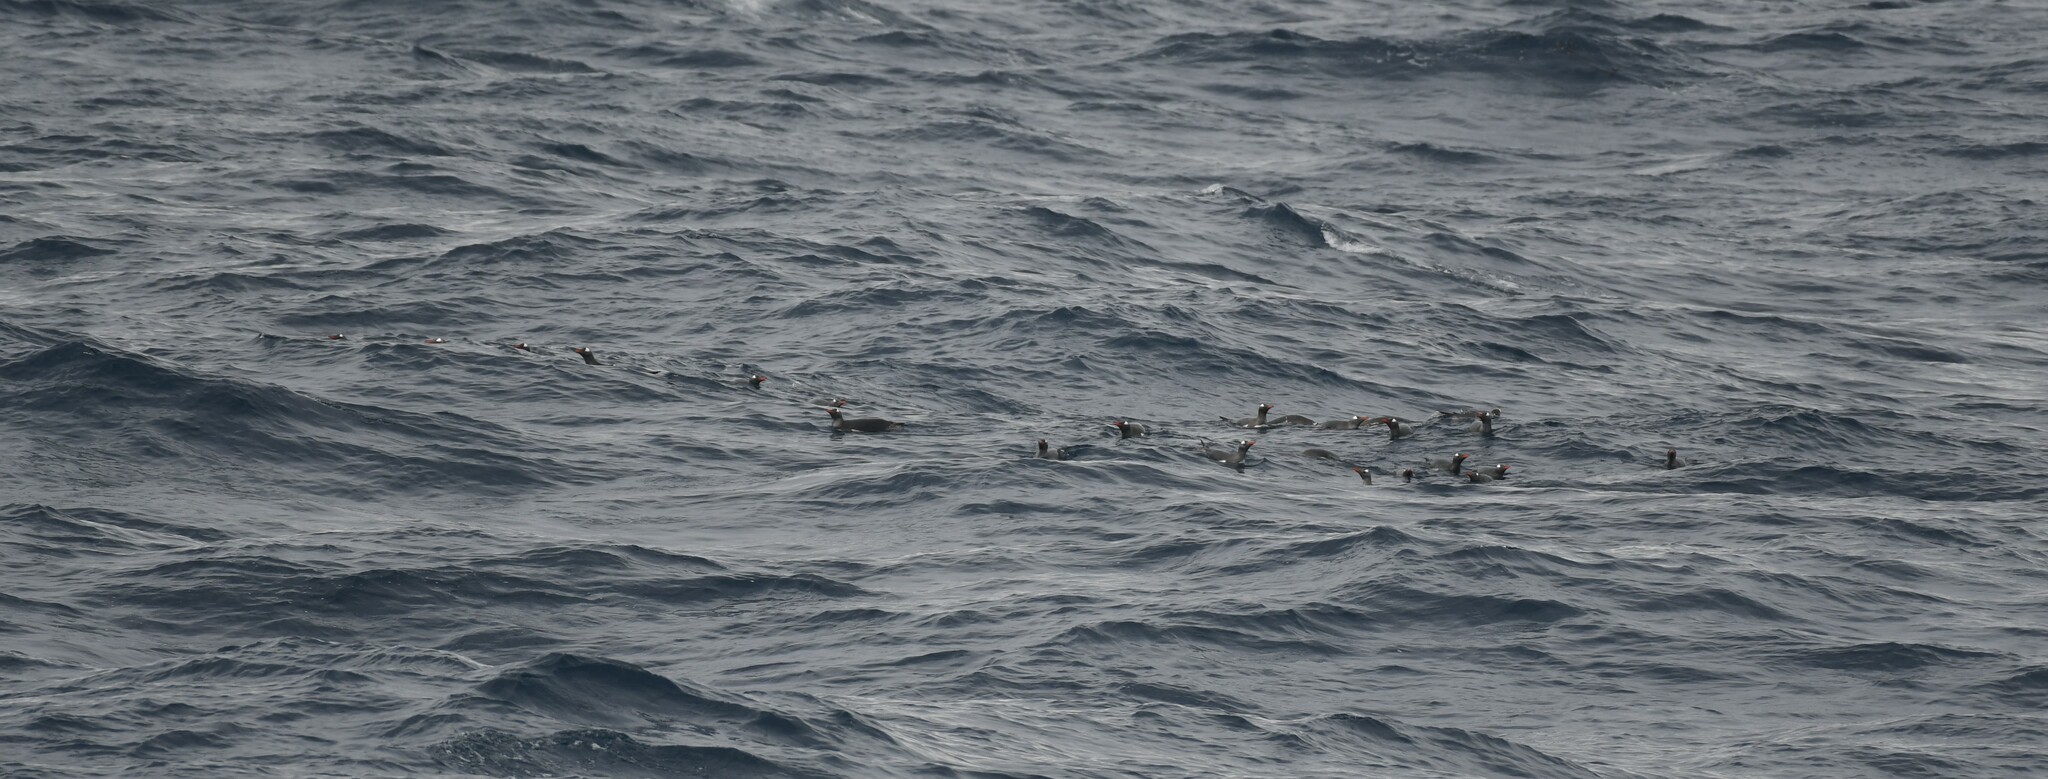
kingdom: Animalia
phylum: Chordata
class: Aves
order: Sphenisciformes
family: Spheniscidae
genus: Pygoscelis
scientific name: Pygoscelis papua
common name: Gentoo penguin
